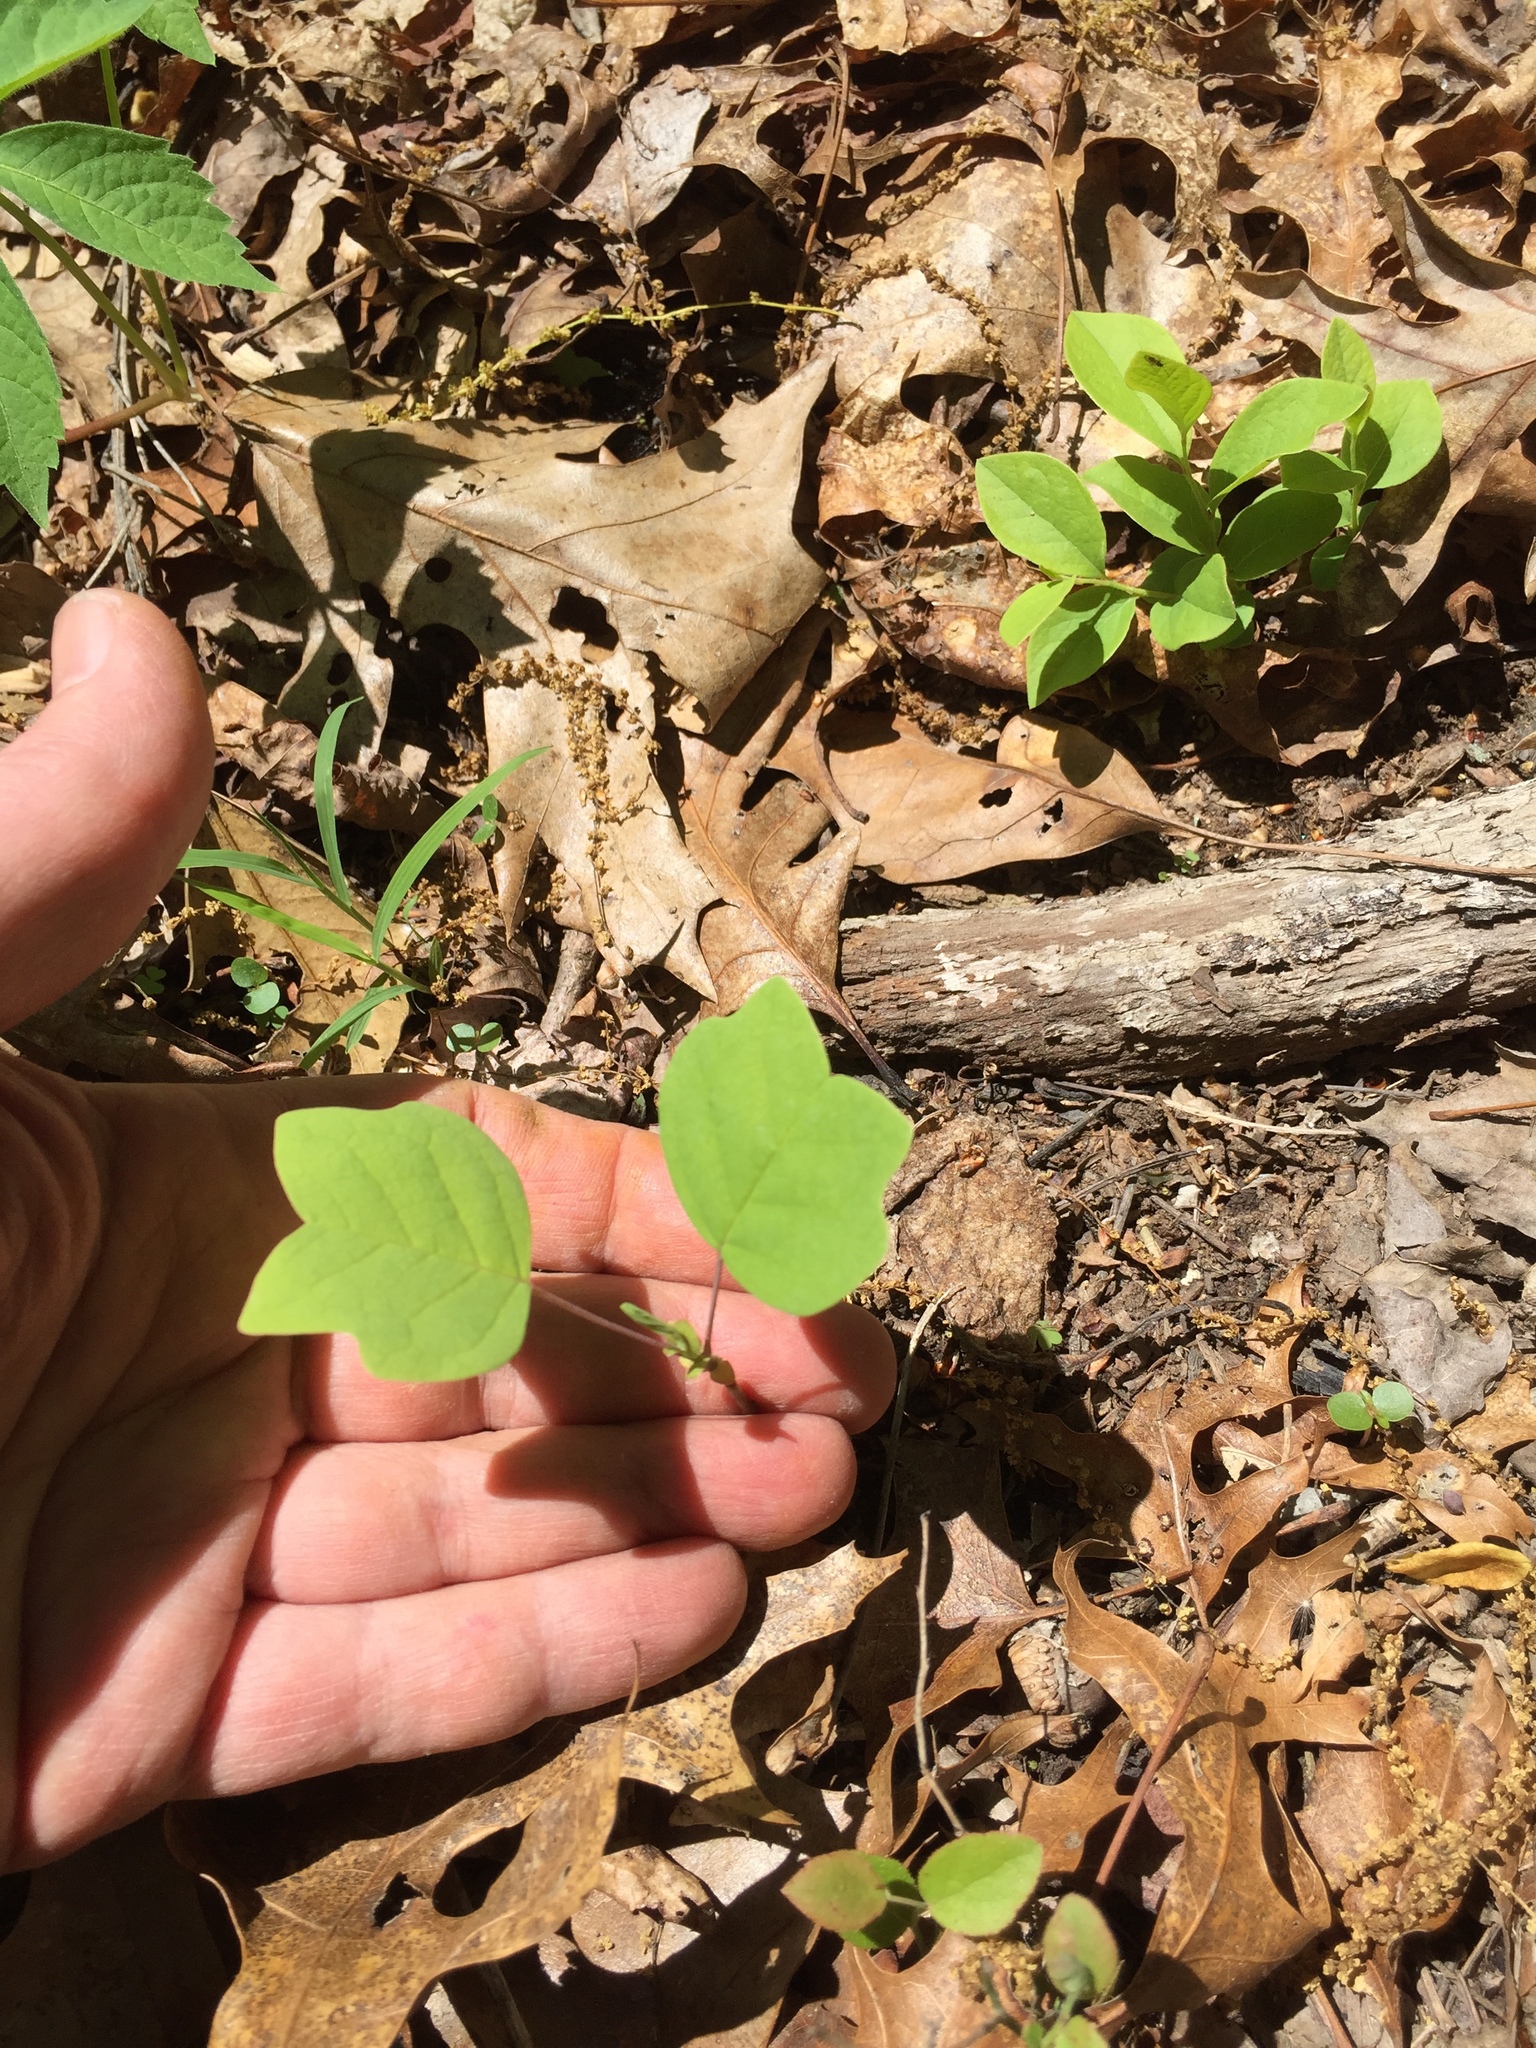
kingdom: Plantae
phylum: Tracheophyta
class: Magnoliopsida
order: Magnoliales
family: Magnoliaceae
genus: Liriodendron
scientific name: Liriodendron tulipifera
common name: Tulip tree
